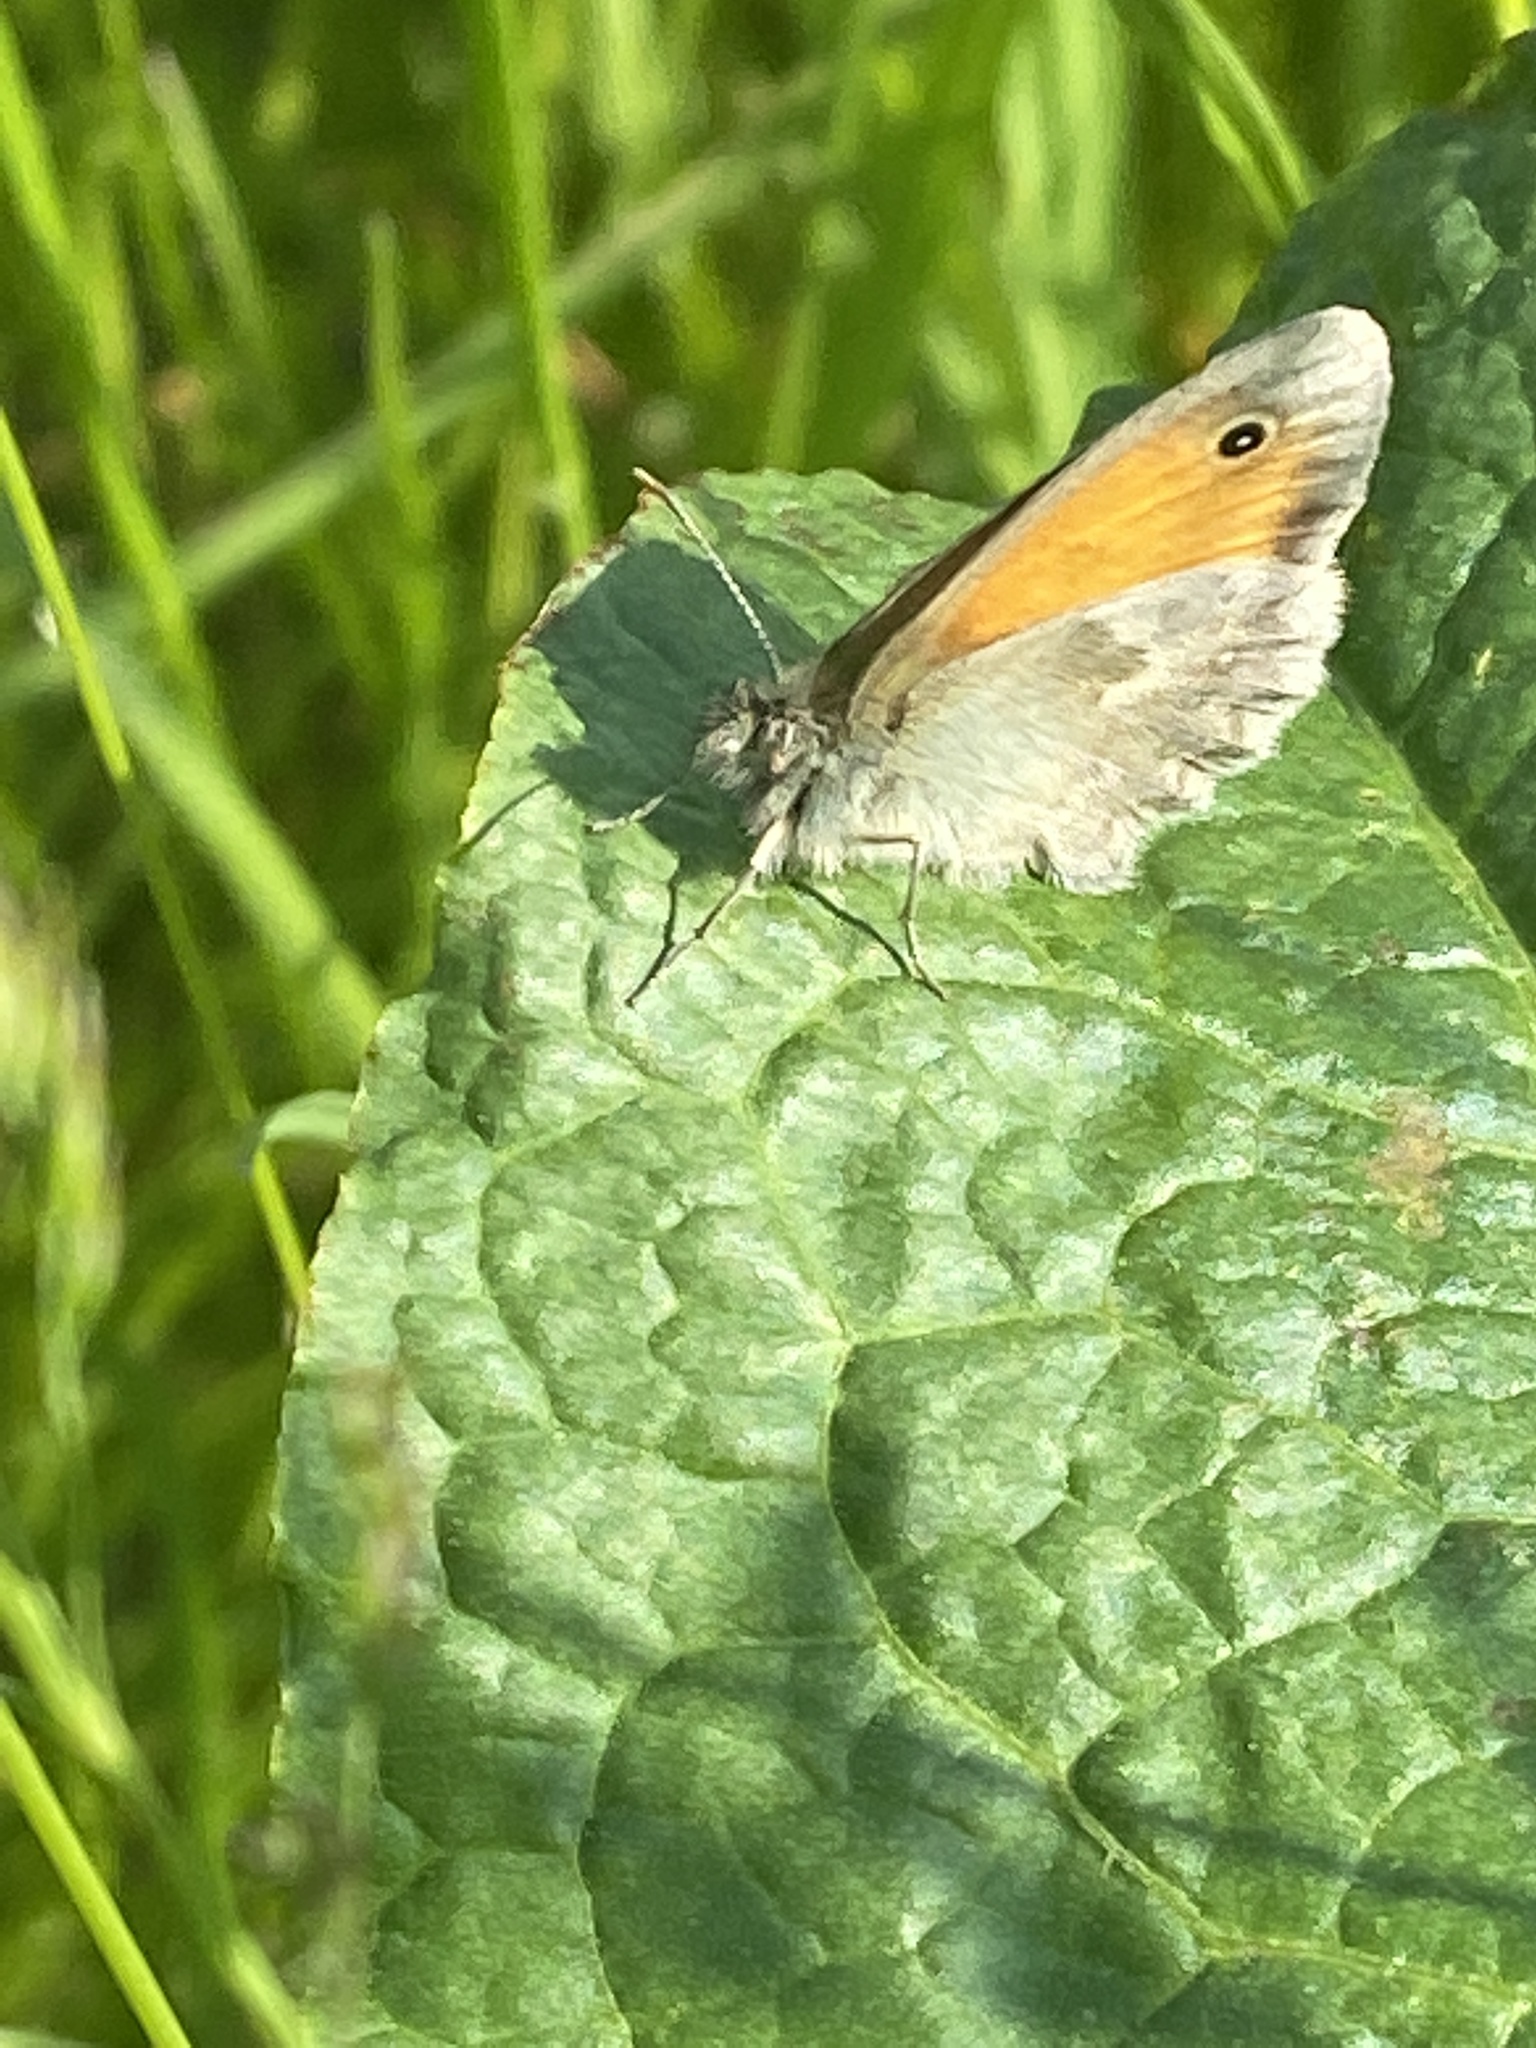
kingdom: Animalia
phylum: Arthropoda
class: Insecta
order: Lepidoptera
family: Nymphalidae
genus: Coenonympha
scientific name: Coenonympha pamphilus
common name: Small heath
